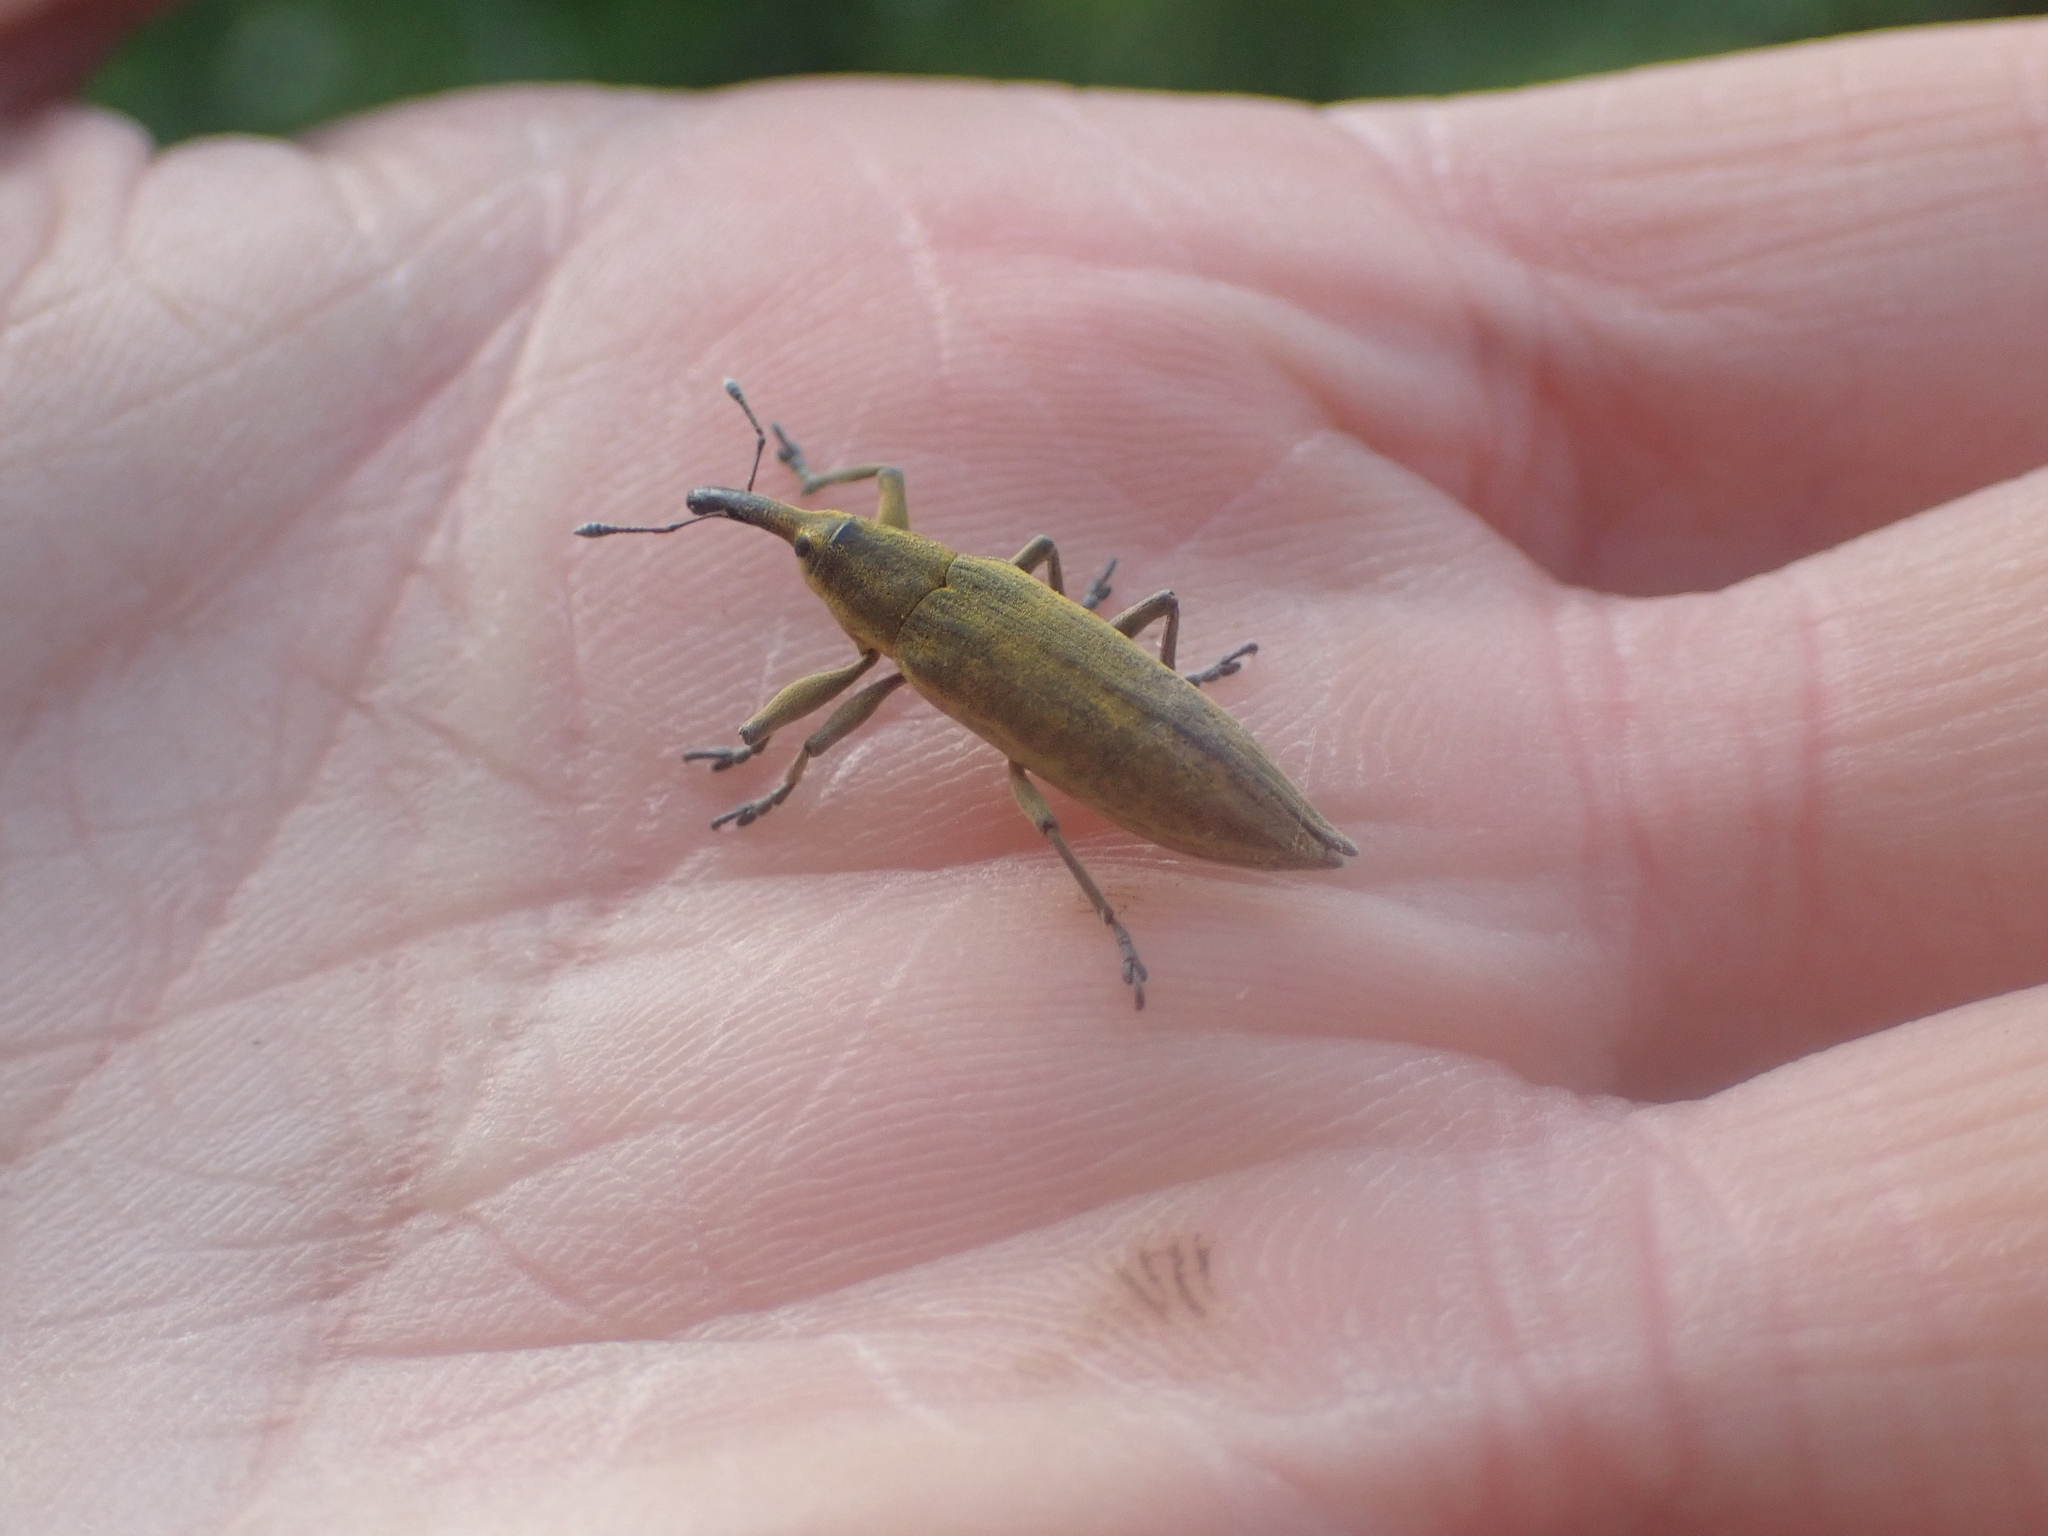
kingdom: Animalia
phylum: Arthropoda
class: Insecta
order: Coleoptera
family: Curculionidae
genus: Lixus
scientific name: Lixus iridis
